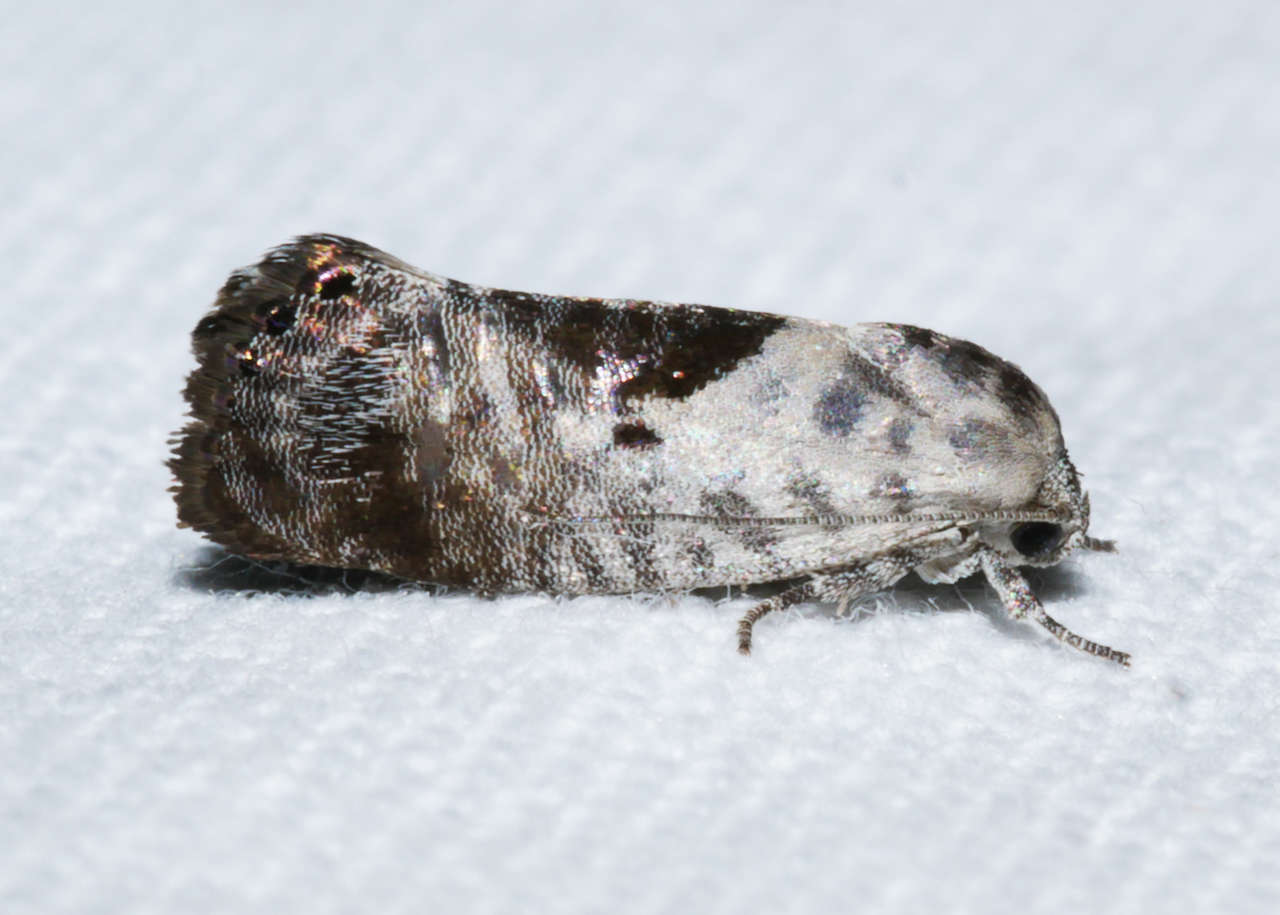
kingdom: Animalia
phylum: Arthropoda
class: Insecta
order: Lepidoptera
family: Depressariidae
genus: Eupselia
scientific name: Eupselia carpocapsella
